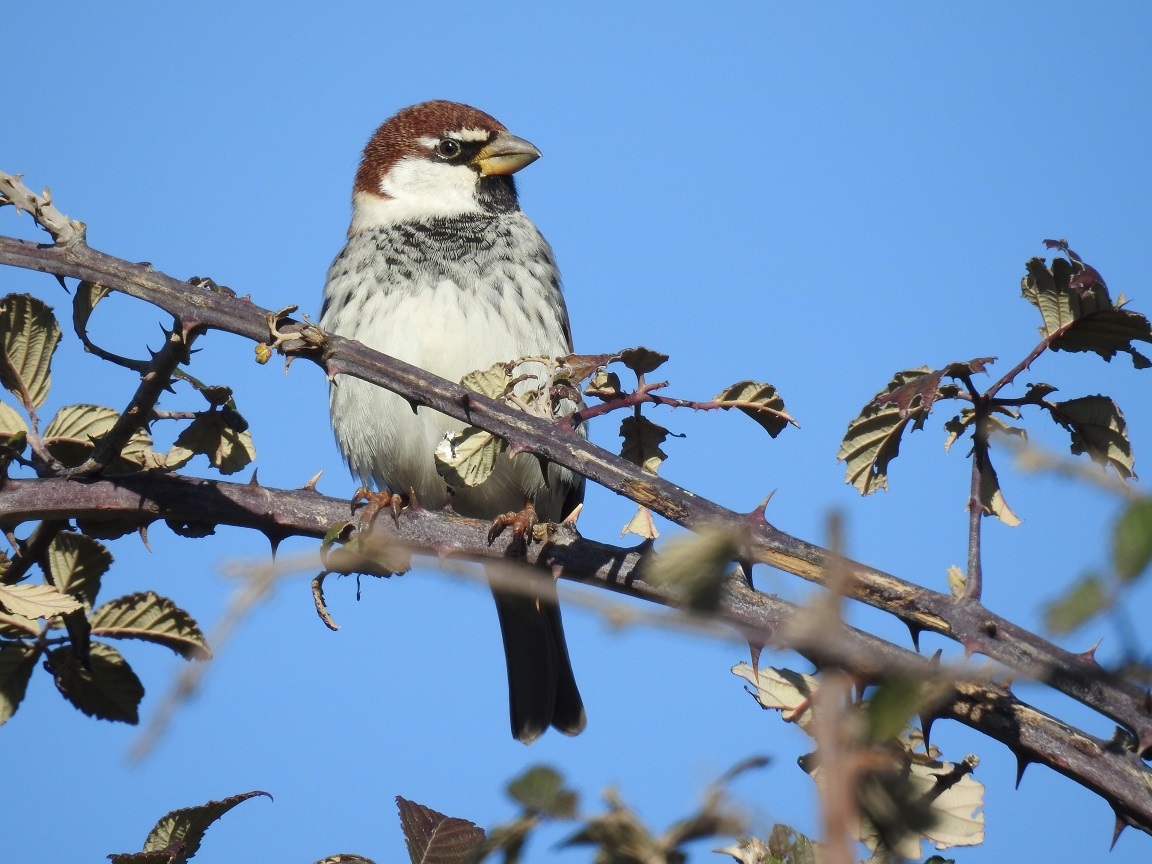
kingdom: Animalia
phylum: Chordata
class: Aves
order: Passeriformes
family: Passeridae
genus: Passer
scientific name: Passer hispaniolensis
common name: Spanish sparrow
